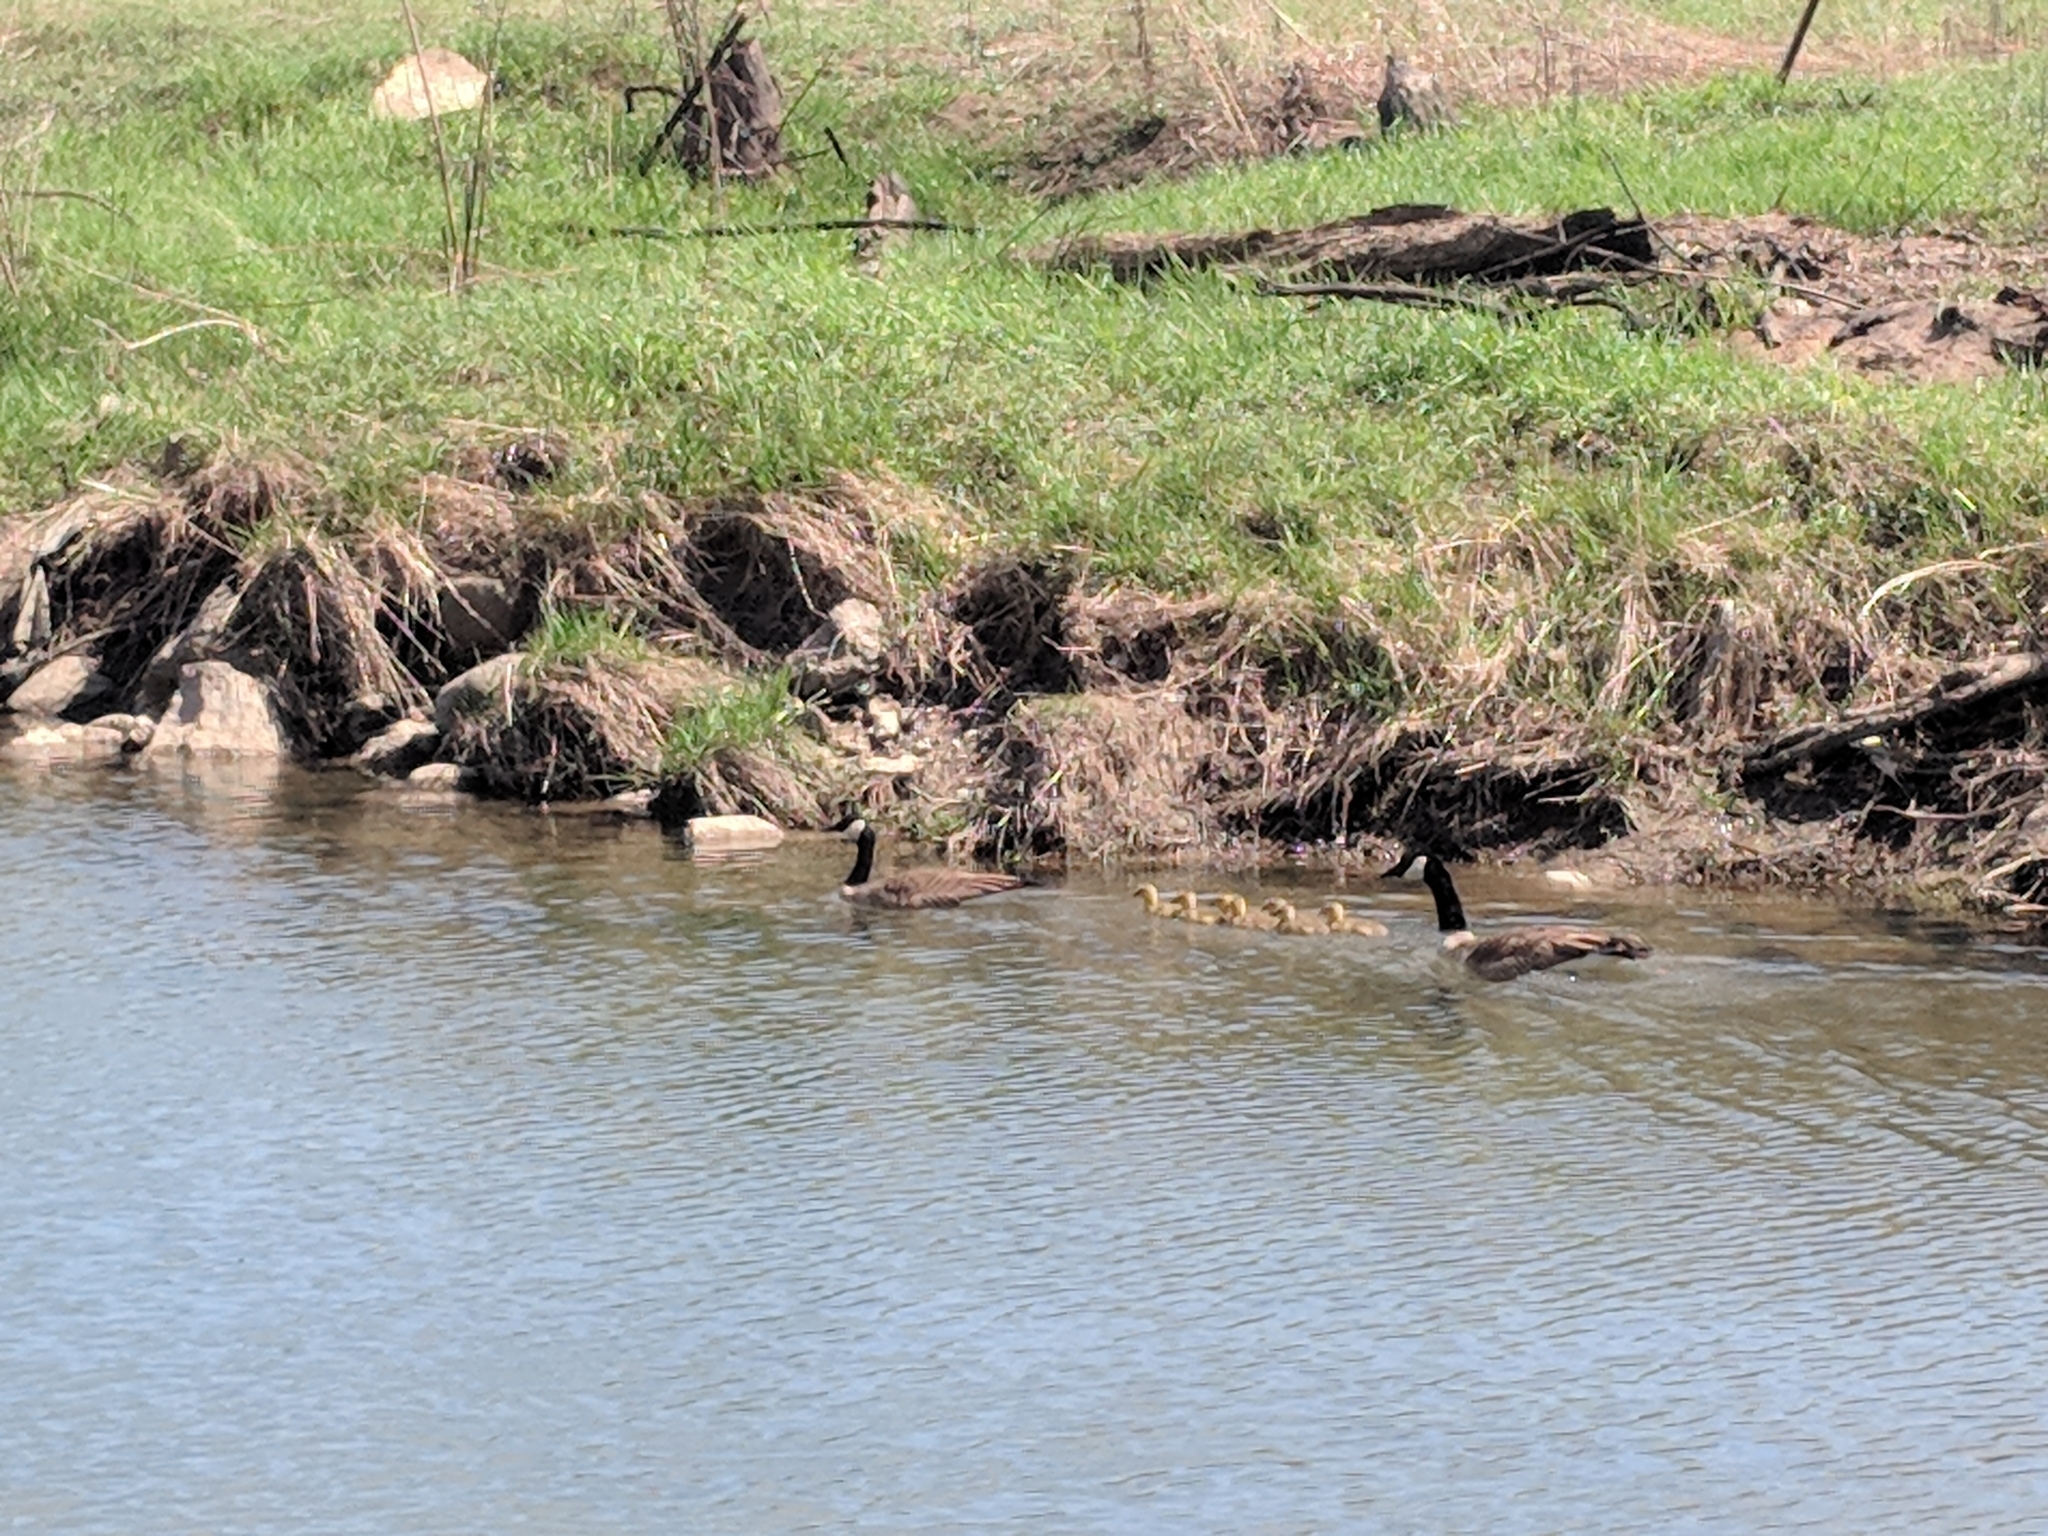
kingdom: Animalia
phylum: Chordata
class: Aves
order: Anseriformes
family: Anatidae
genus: Branta
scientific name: Branta canadensis
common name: Canada goose
